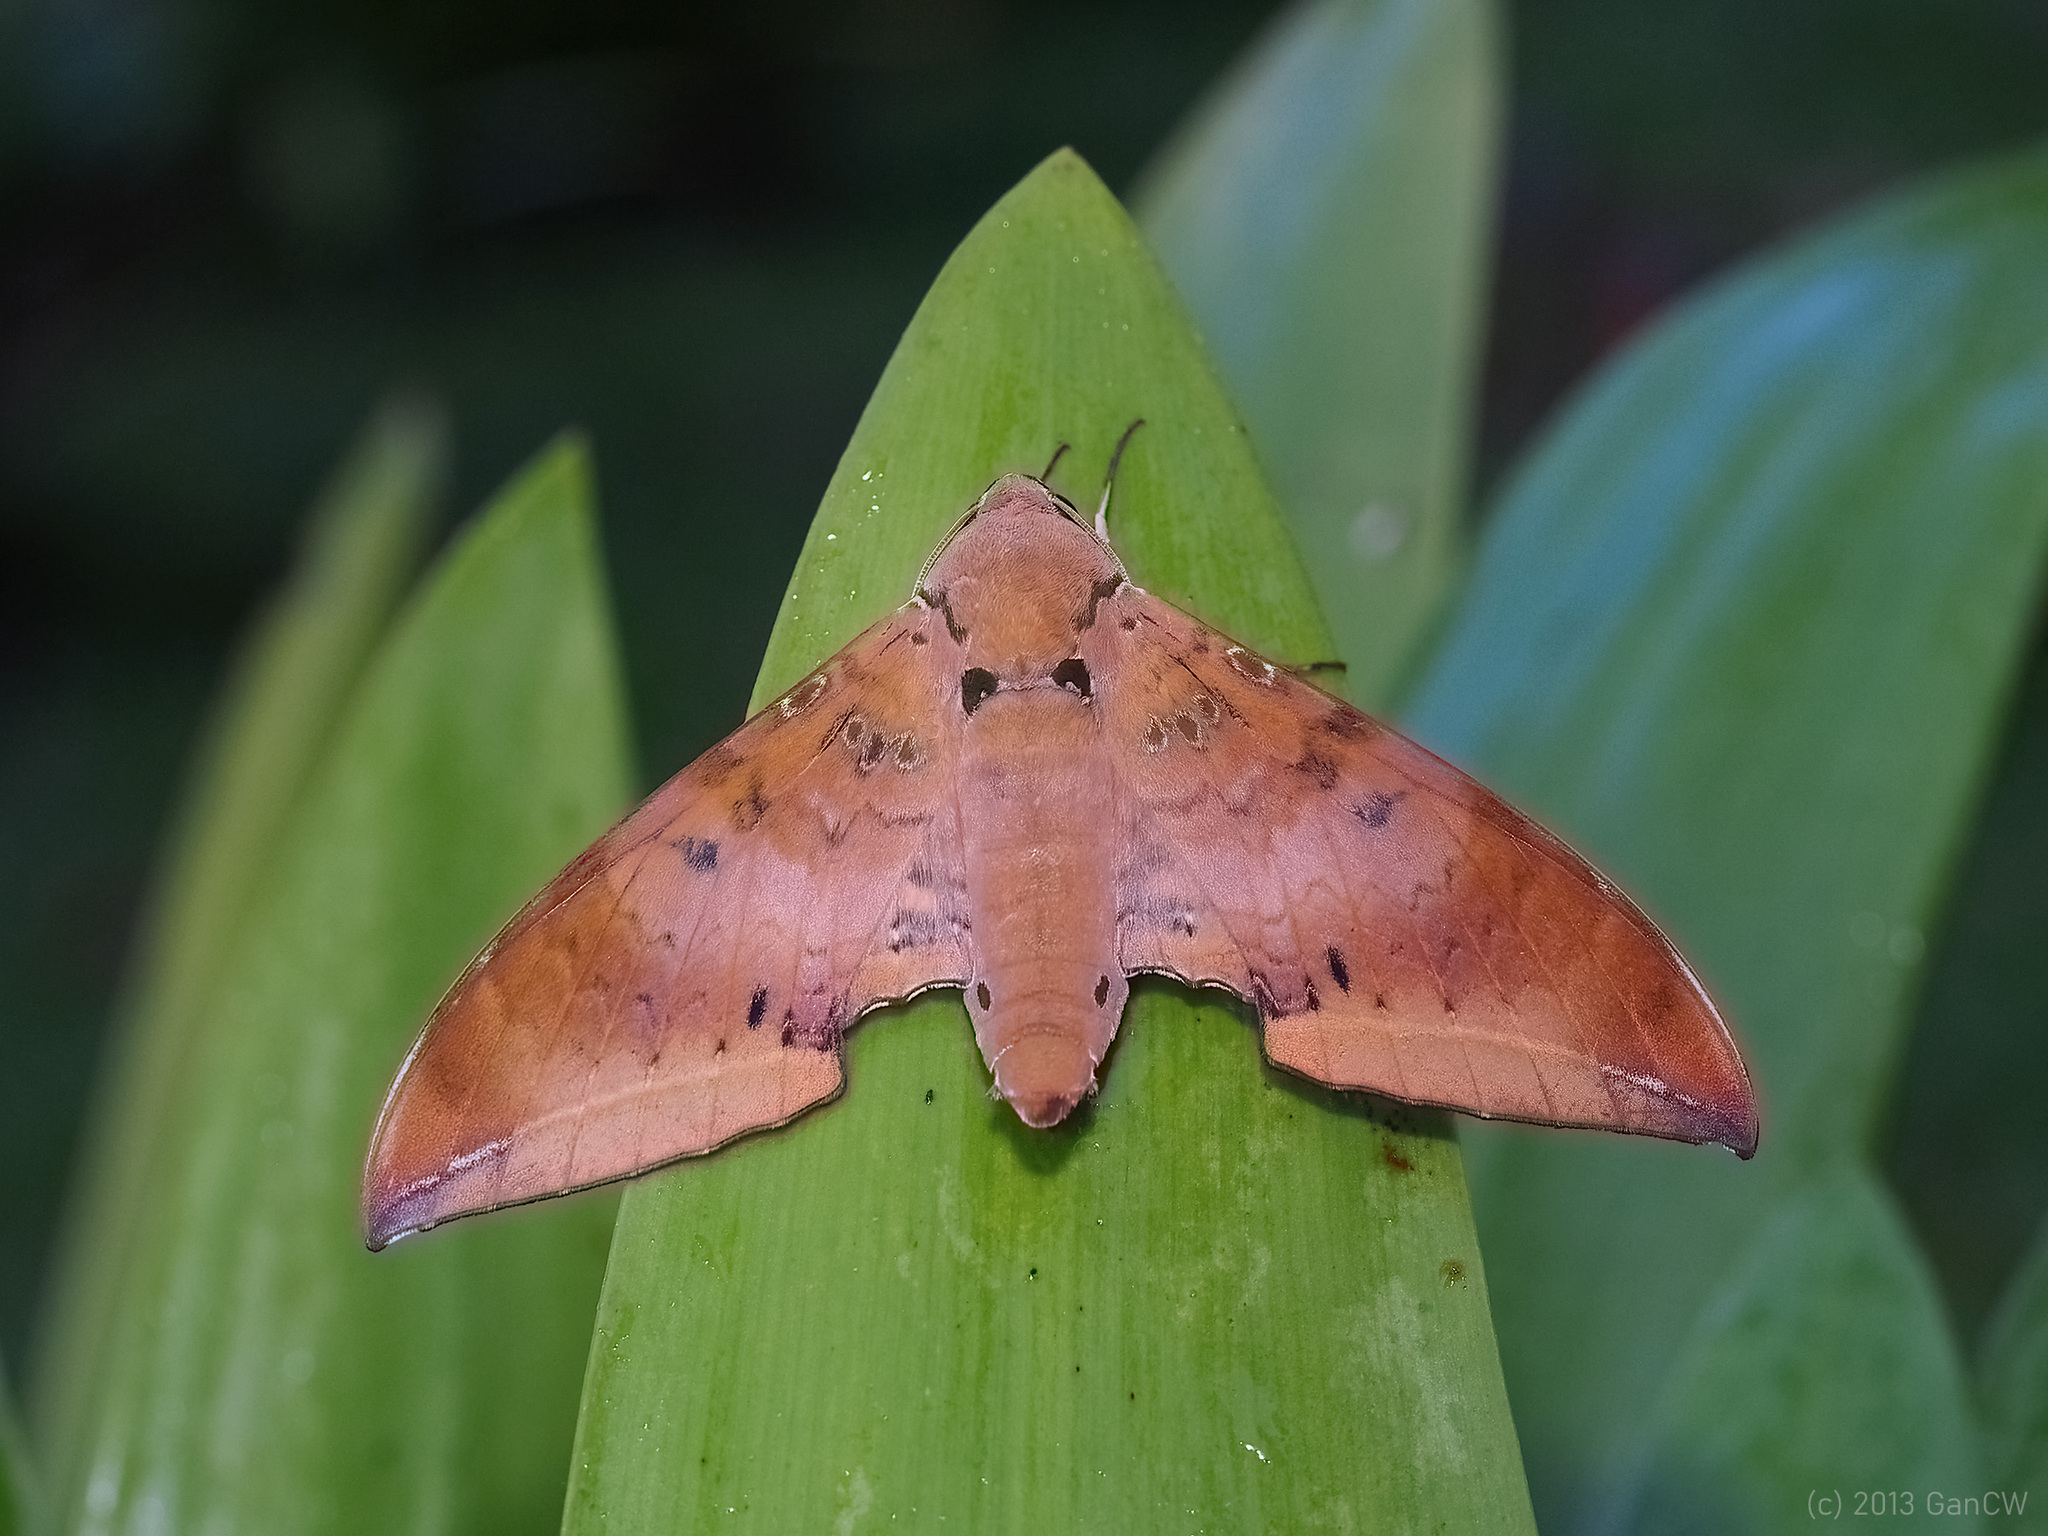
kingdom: Animalia
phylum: Arthropoda
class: Insecta
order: Lepidoptera
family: Sphingidae
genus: Ambulyx
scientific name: Ambulyx moorei
